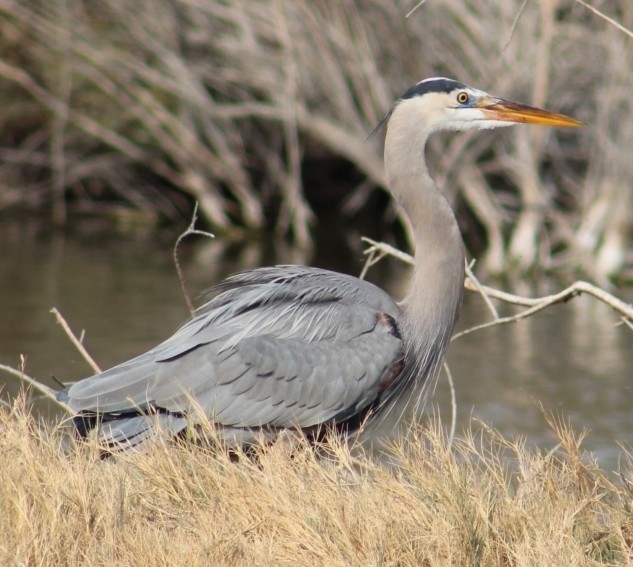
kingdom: Animalia
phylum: Chordata
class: Aves
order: Pelecaniformes
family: Ardeidae
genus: Ardea
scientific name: Ardea herodias
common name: Great blue heron
